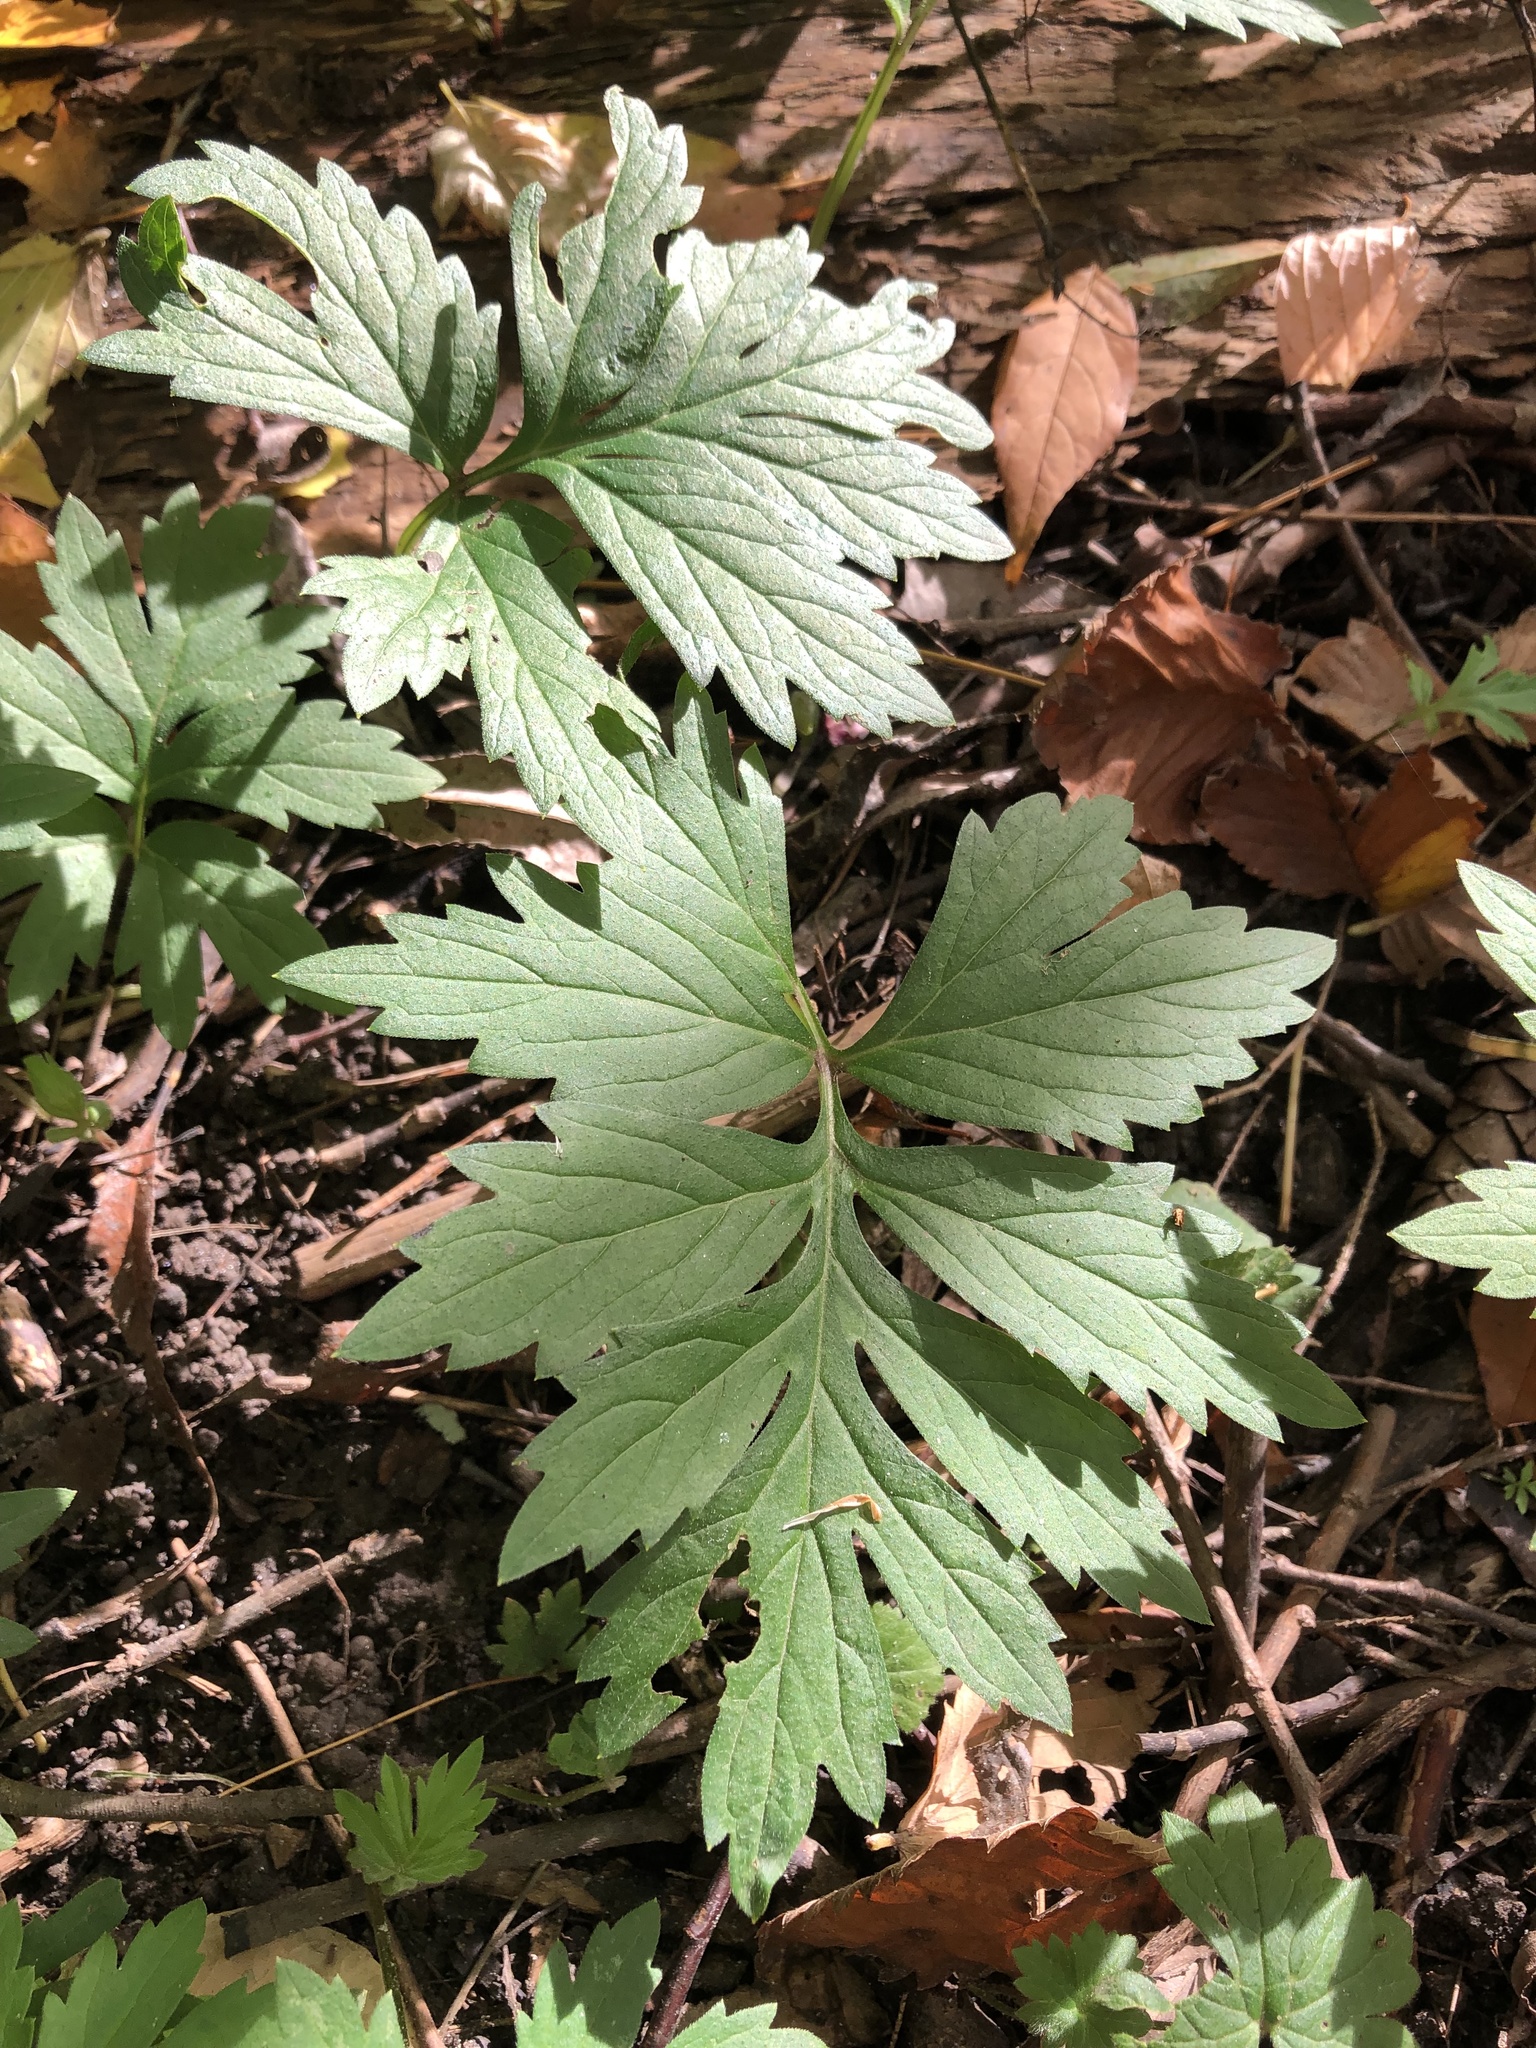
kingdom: Plantae
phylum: Tracheophyta
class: Magnoliopsida
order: Boraginales
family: Hydrophyllaceae
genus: Hydrophyllum
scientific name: Hydrophyllum virginianum
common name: Virginia waterleaf
